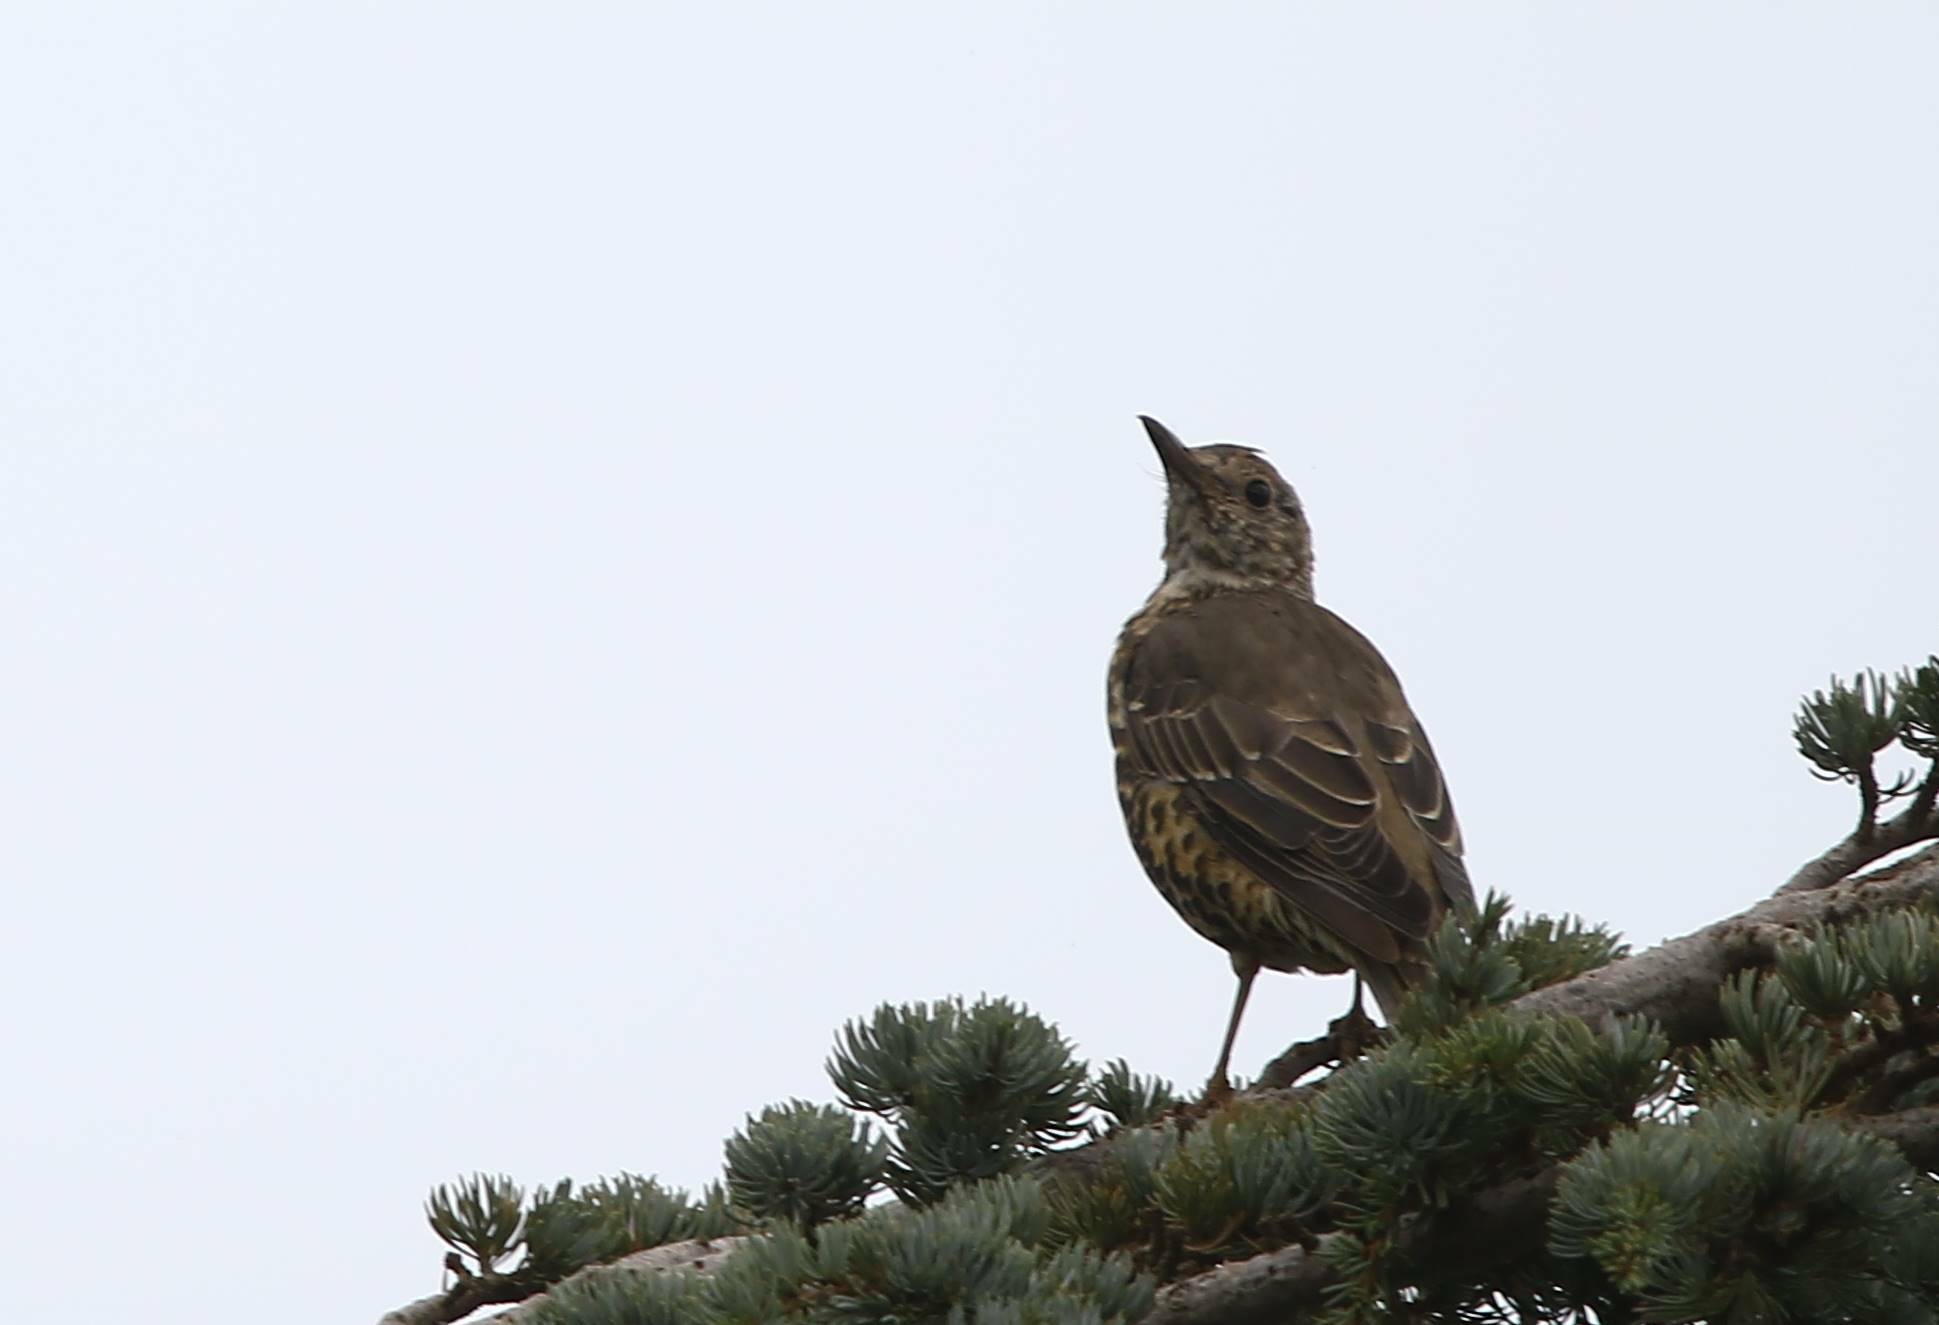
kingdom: Animalia
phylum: Chordata
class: Aves
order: Passeriformes
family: Turdidae
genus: Turdus
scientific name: Turdus viscivorus
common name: Mistle thrush
